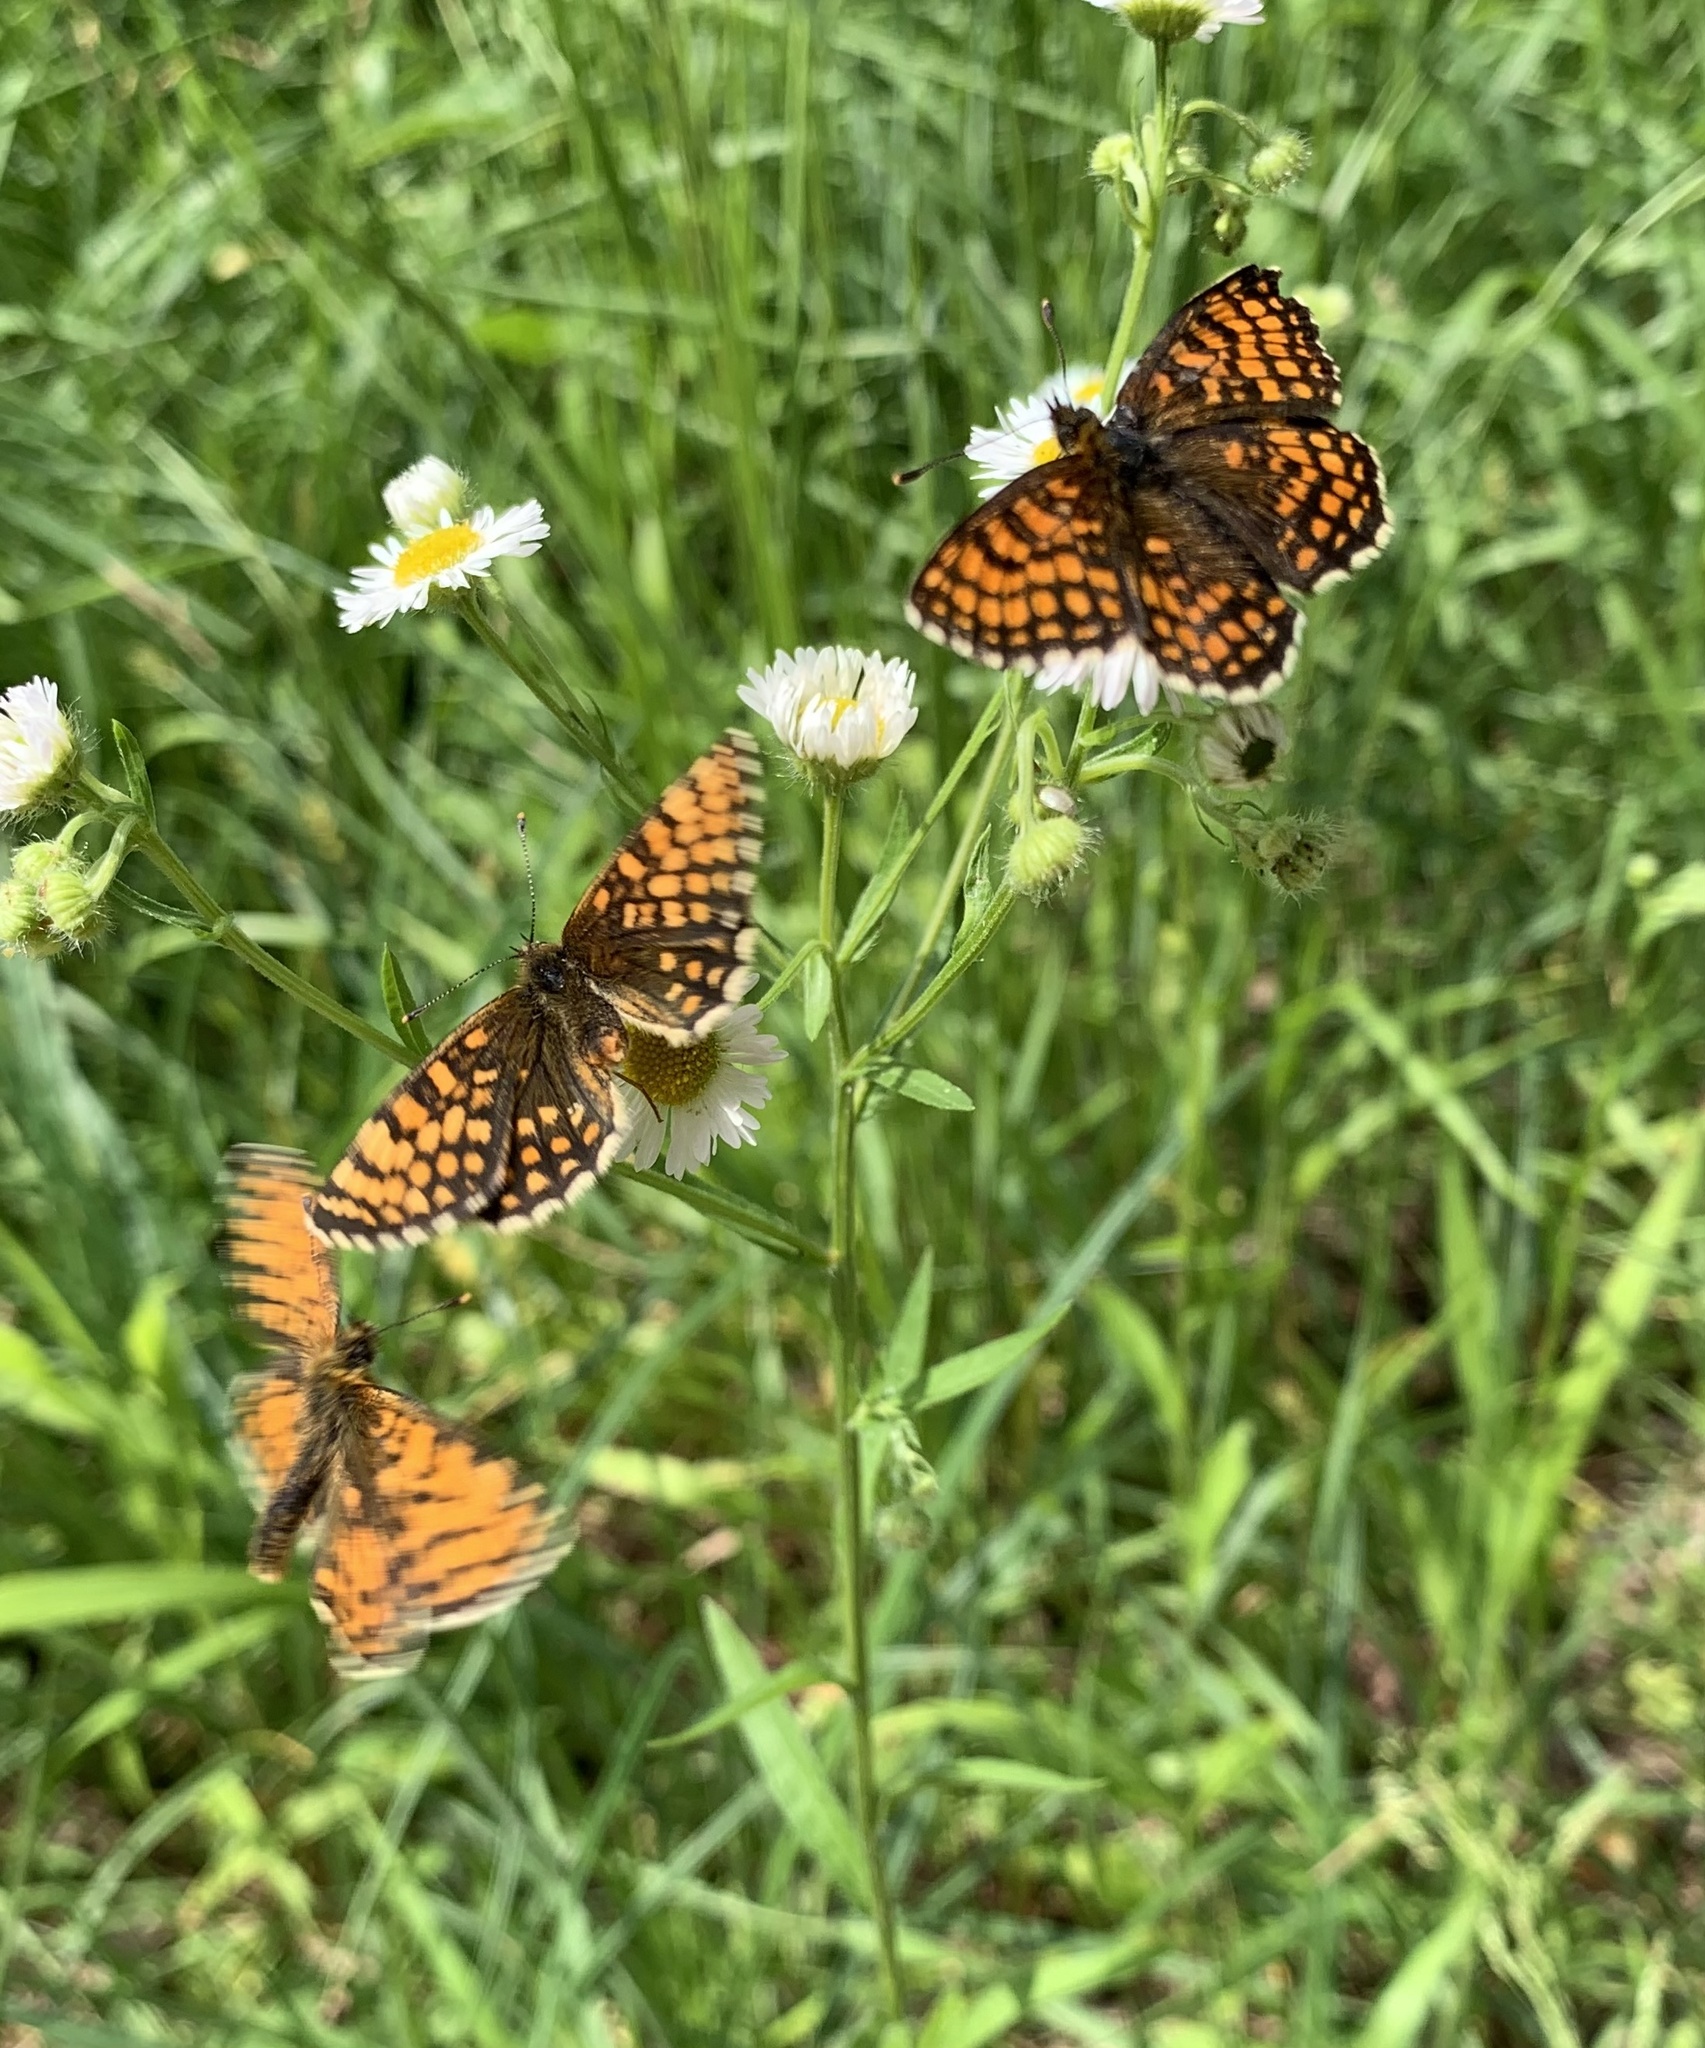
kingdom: Animalia
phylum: Arthropoda
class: Insecta
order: Lepidoptera
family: Nymphalidae
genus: Melitaea
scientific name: Melitaea athalia
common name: Heath fritillary
